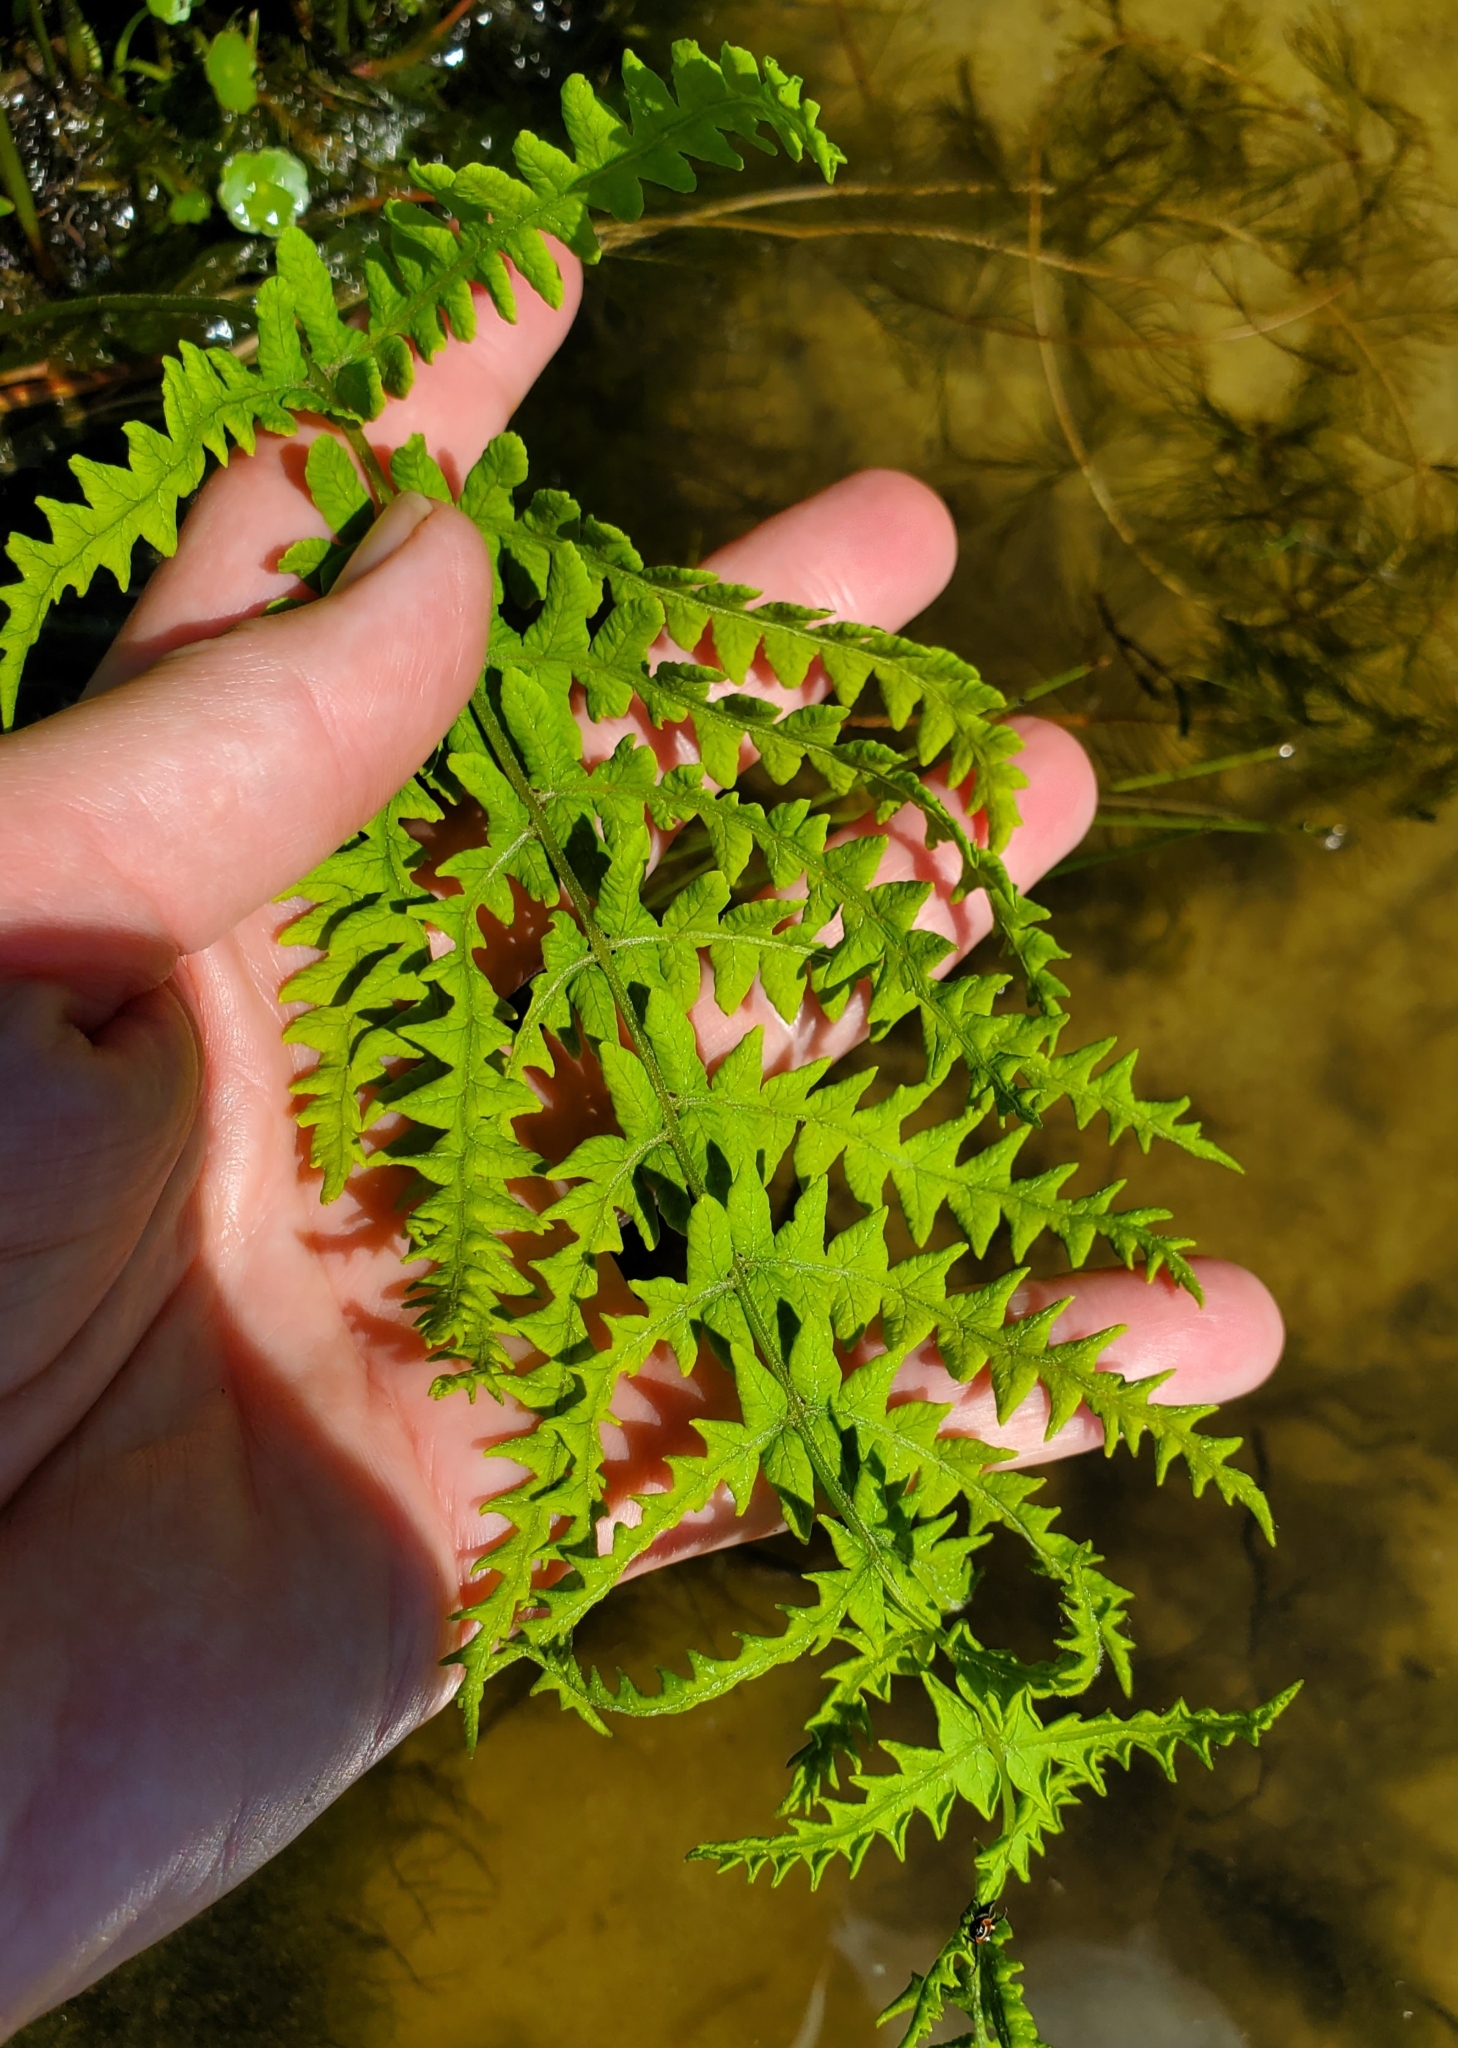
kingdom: Plantae
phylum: Tracheophyta
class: Polypodiopsida
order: Polypodiales
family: Thelypteridaceae
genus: Thelypteris
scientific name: Thelypteris palustris
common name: Marsh fern
